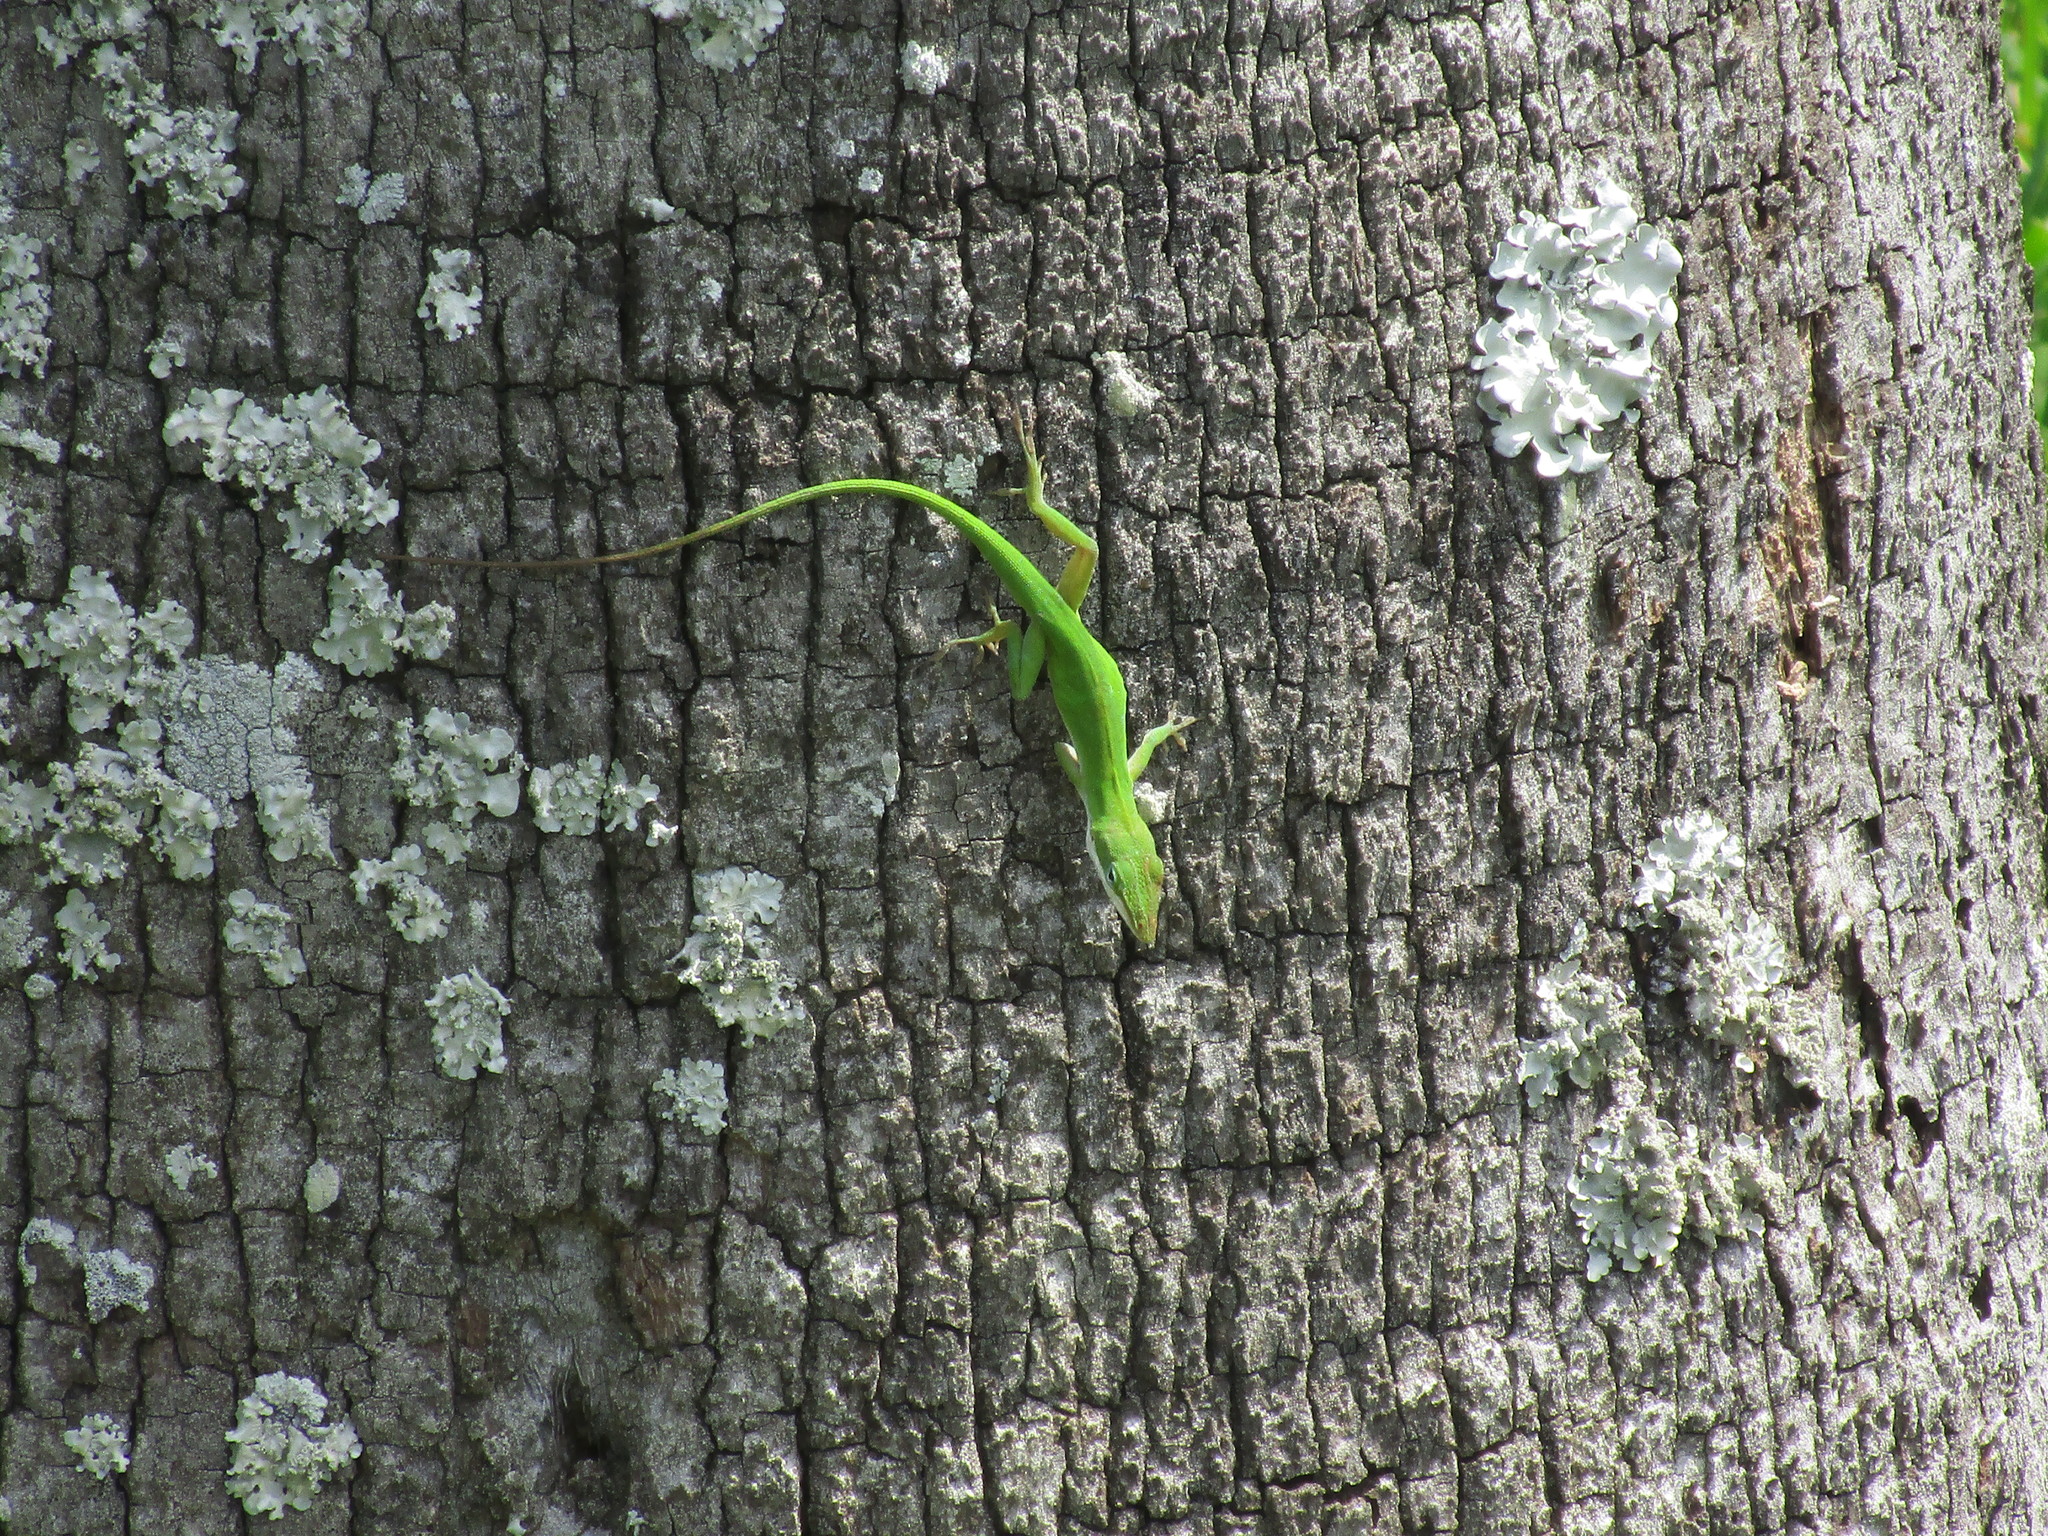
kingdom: Animalia
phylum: Chordata
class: Squamata
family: Dactyloidae
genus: Anolis
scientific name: Anolis carolinensis
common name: Green anole
